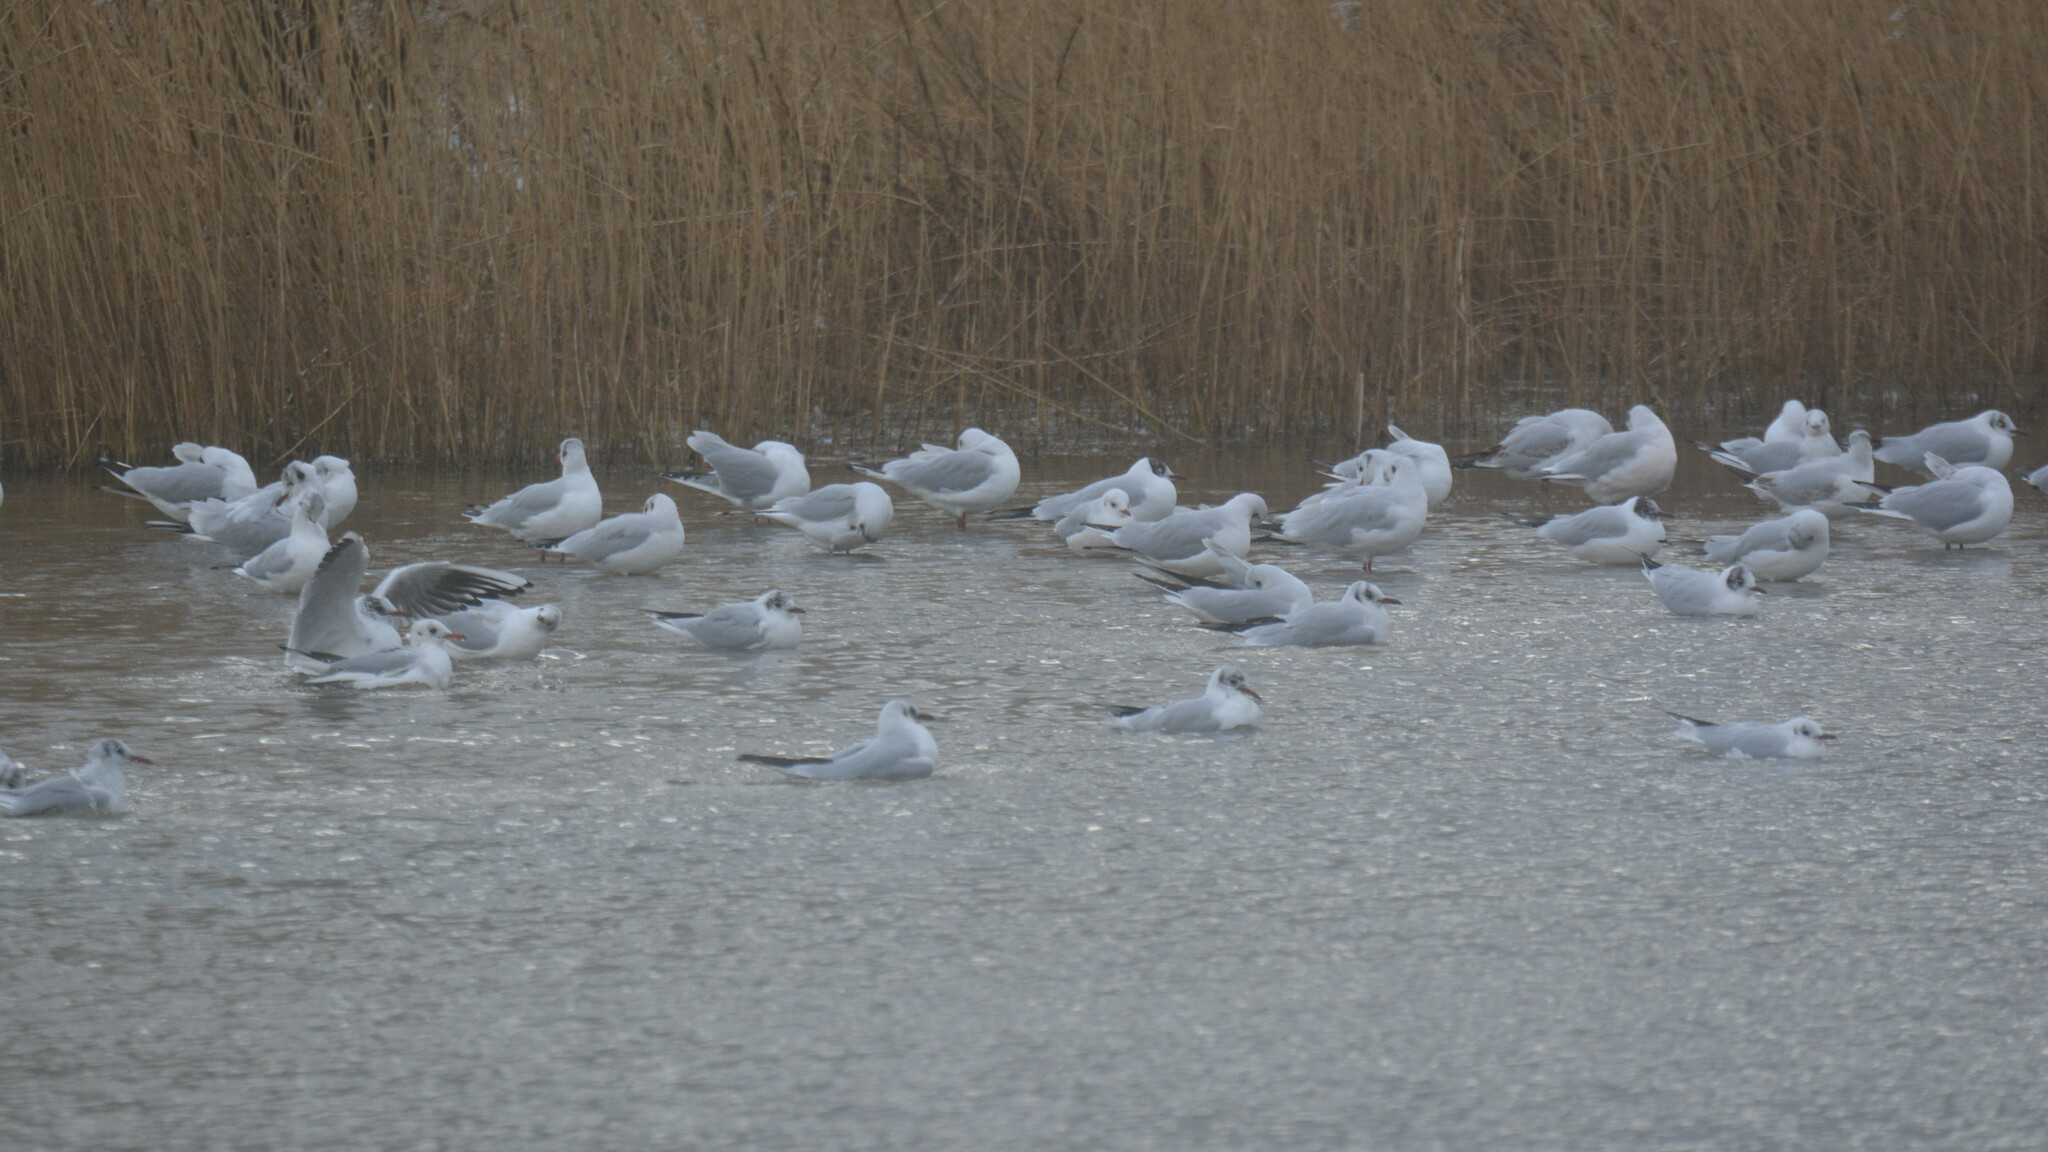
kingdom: Animalia
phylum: Chordata
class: Aves
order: Charadriiformes
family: Laridae
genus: Chroicocephalus
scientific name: Chroicocephalus ridibundus
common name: Black-headed gull
